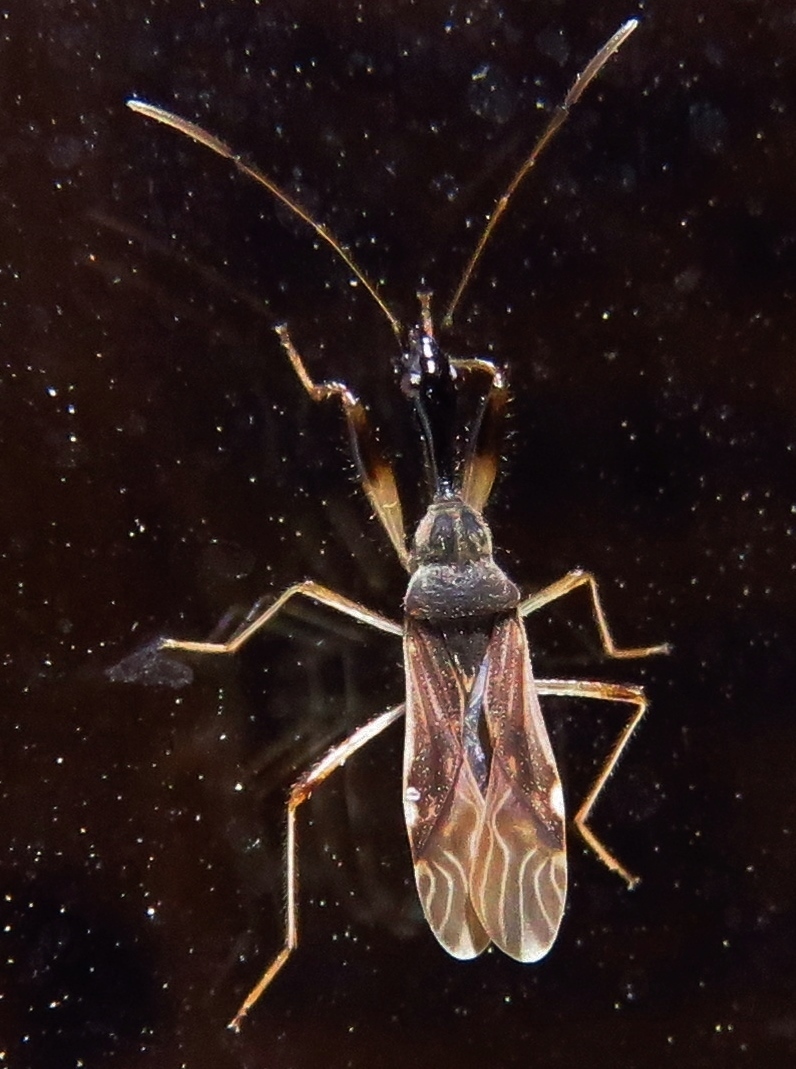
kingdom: Animalia
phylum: Arthropoda
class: Insecta
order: Hemiptera
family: Rhyparochromidae
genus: Myodocha
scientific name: Myodocha serripes
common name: Long-necked seed bug
